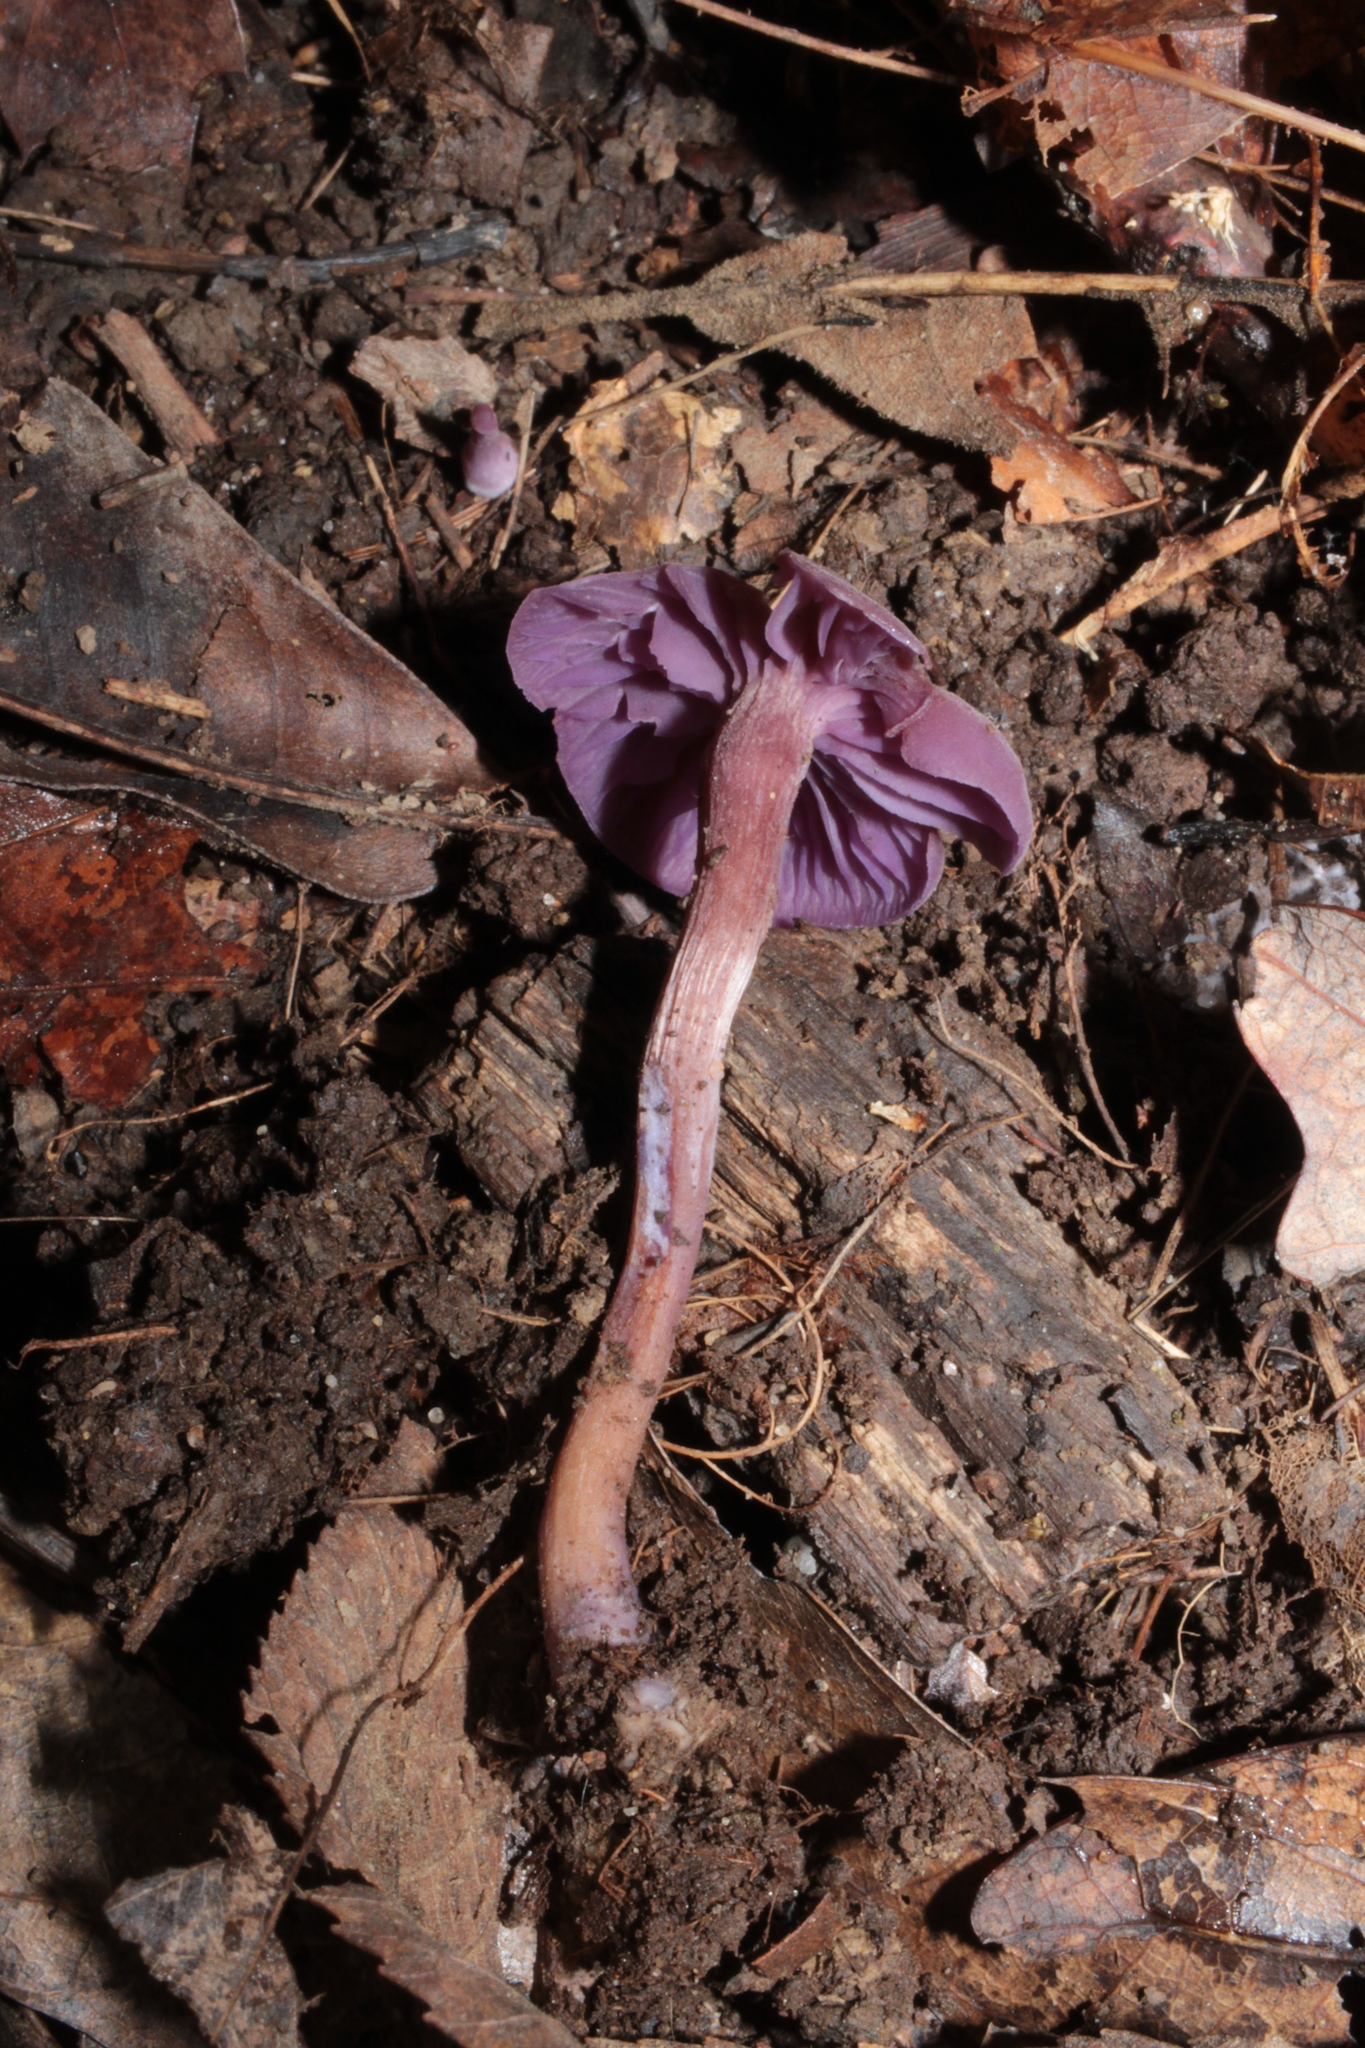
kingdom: Fungi
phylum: Basidiomycota
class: Agaricomycetes
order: Agaricales
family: Hydnangiaceae
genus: Laccaria
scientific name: Laccaria amethystina
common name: Amethyst deceiver
